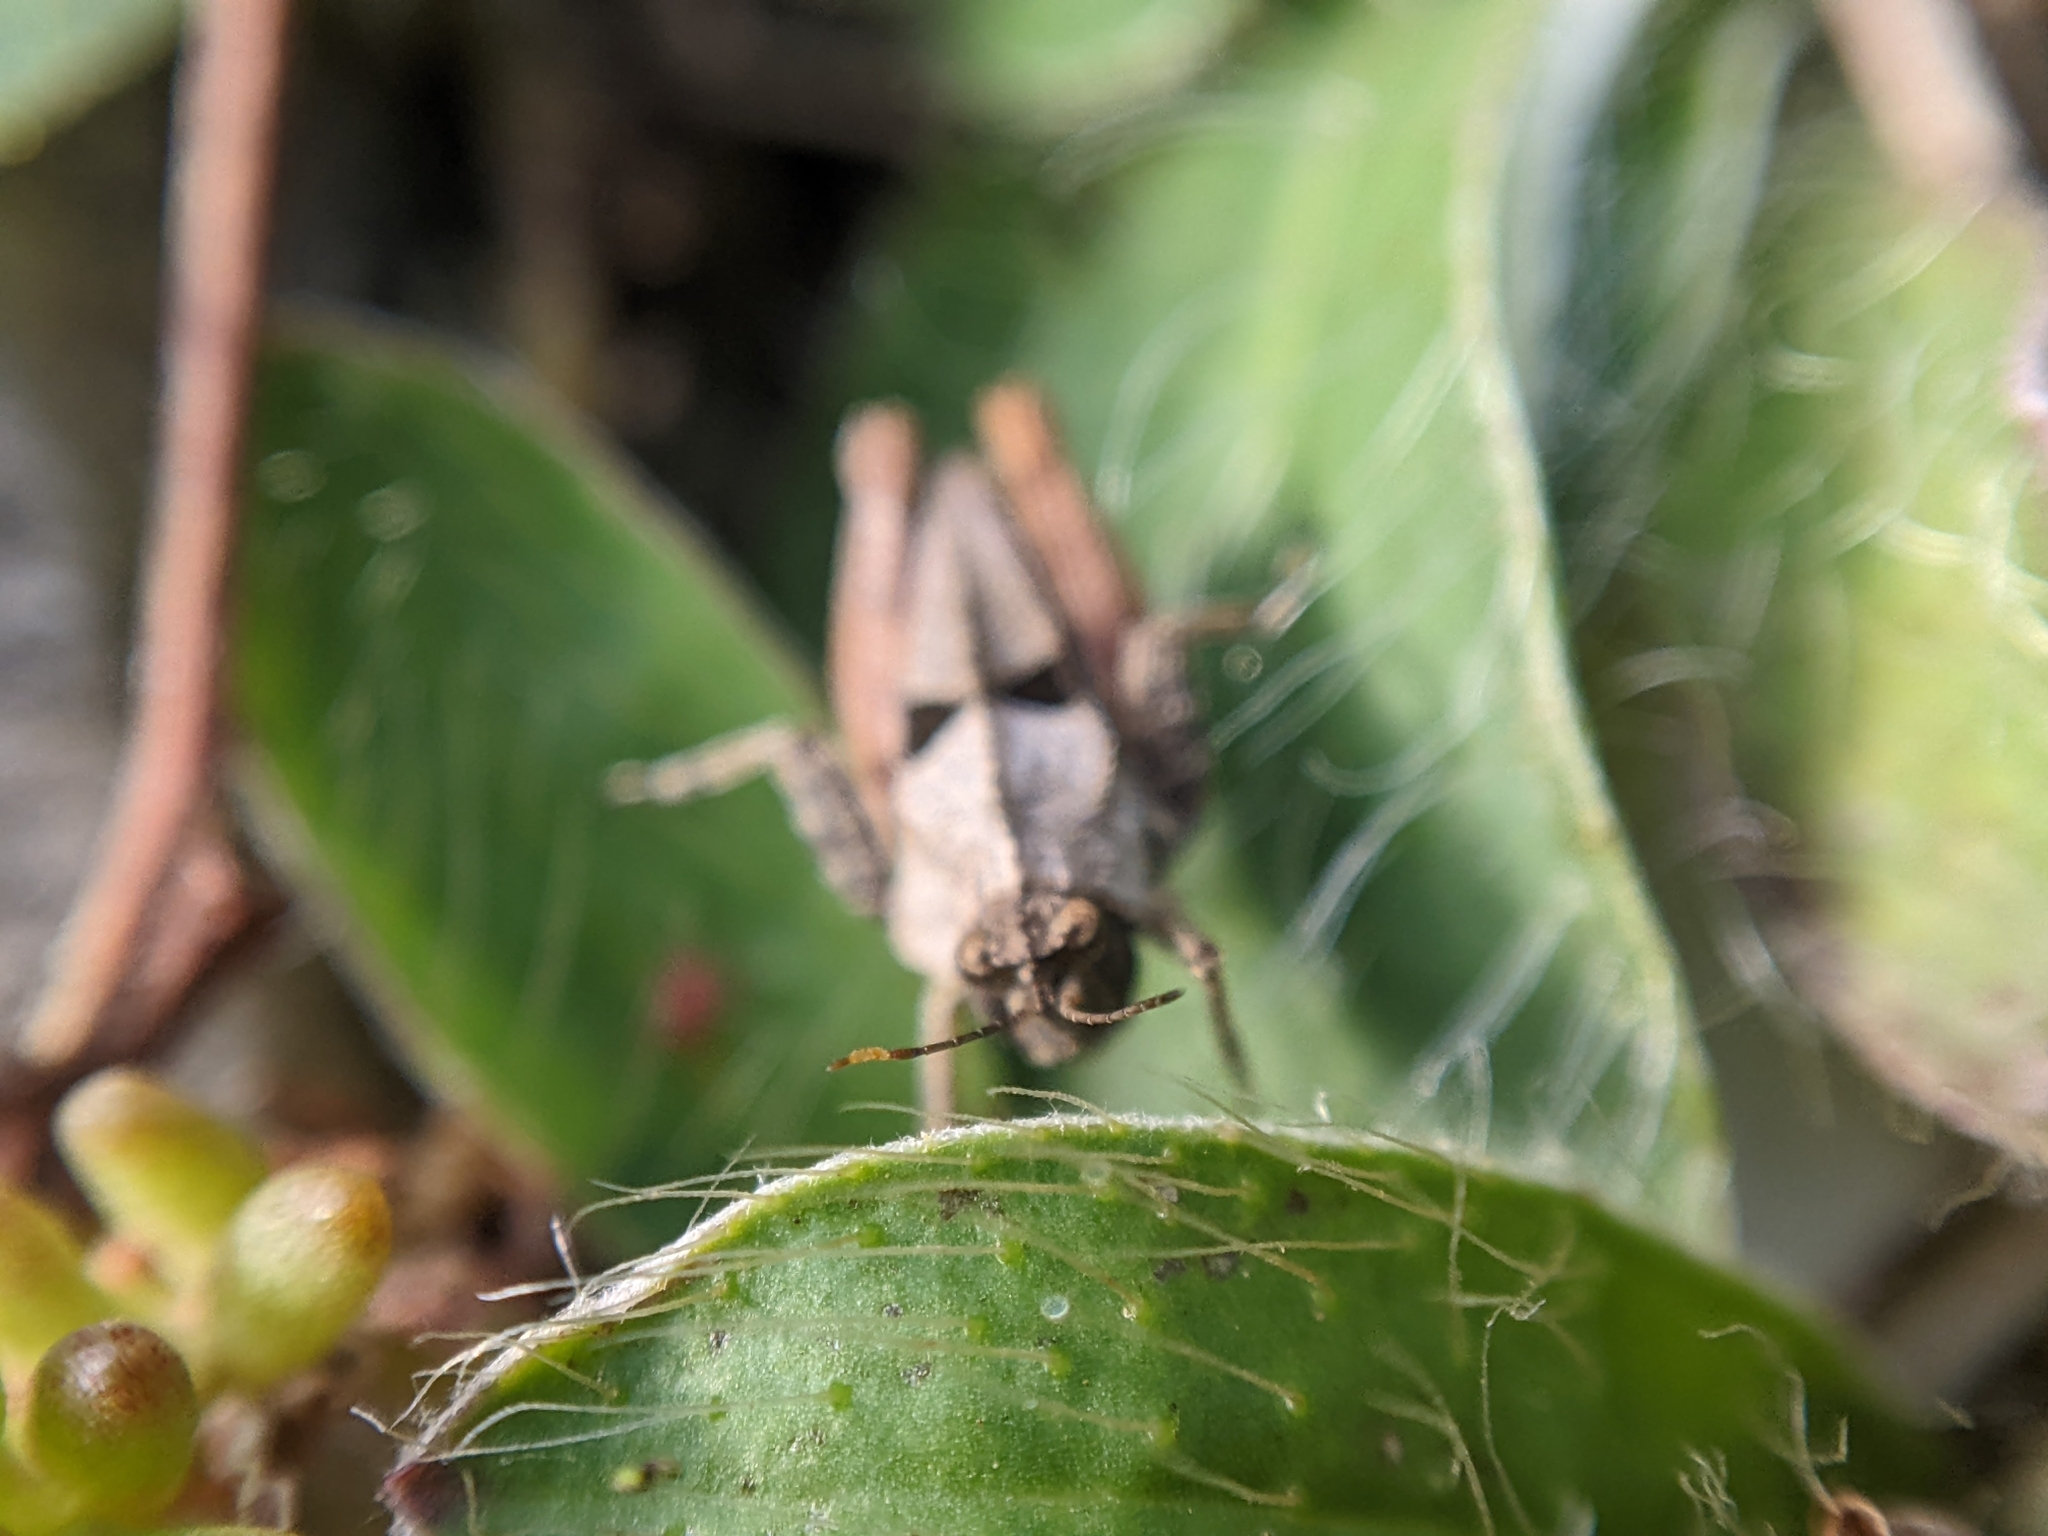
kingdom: Animalia
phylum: Arthropoda
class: Insecta
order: Orthoptera
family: Tetrigidae
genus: Tetrix
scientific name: Tetrix tenuicornis
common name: Long-horned groundhopper
